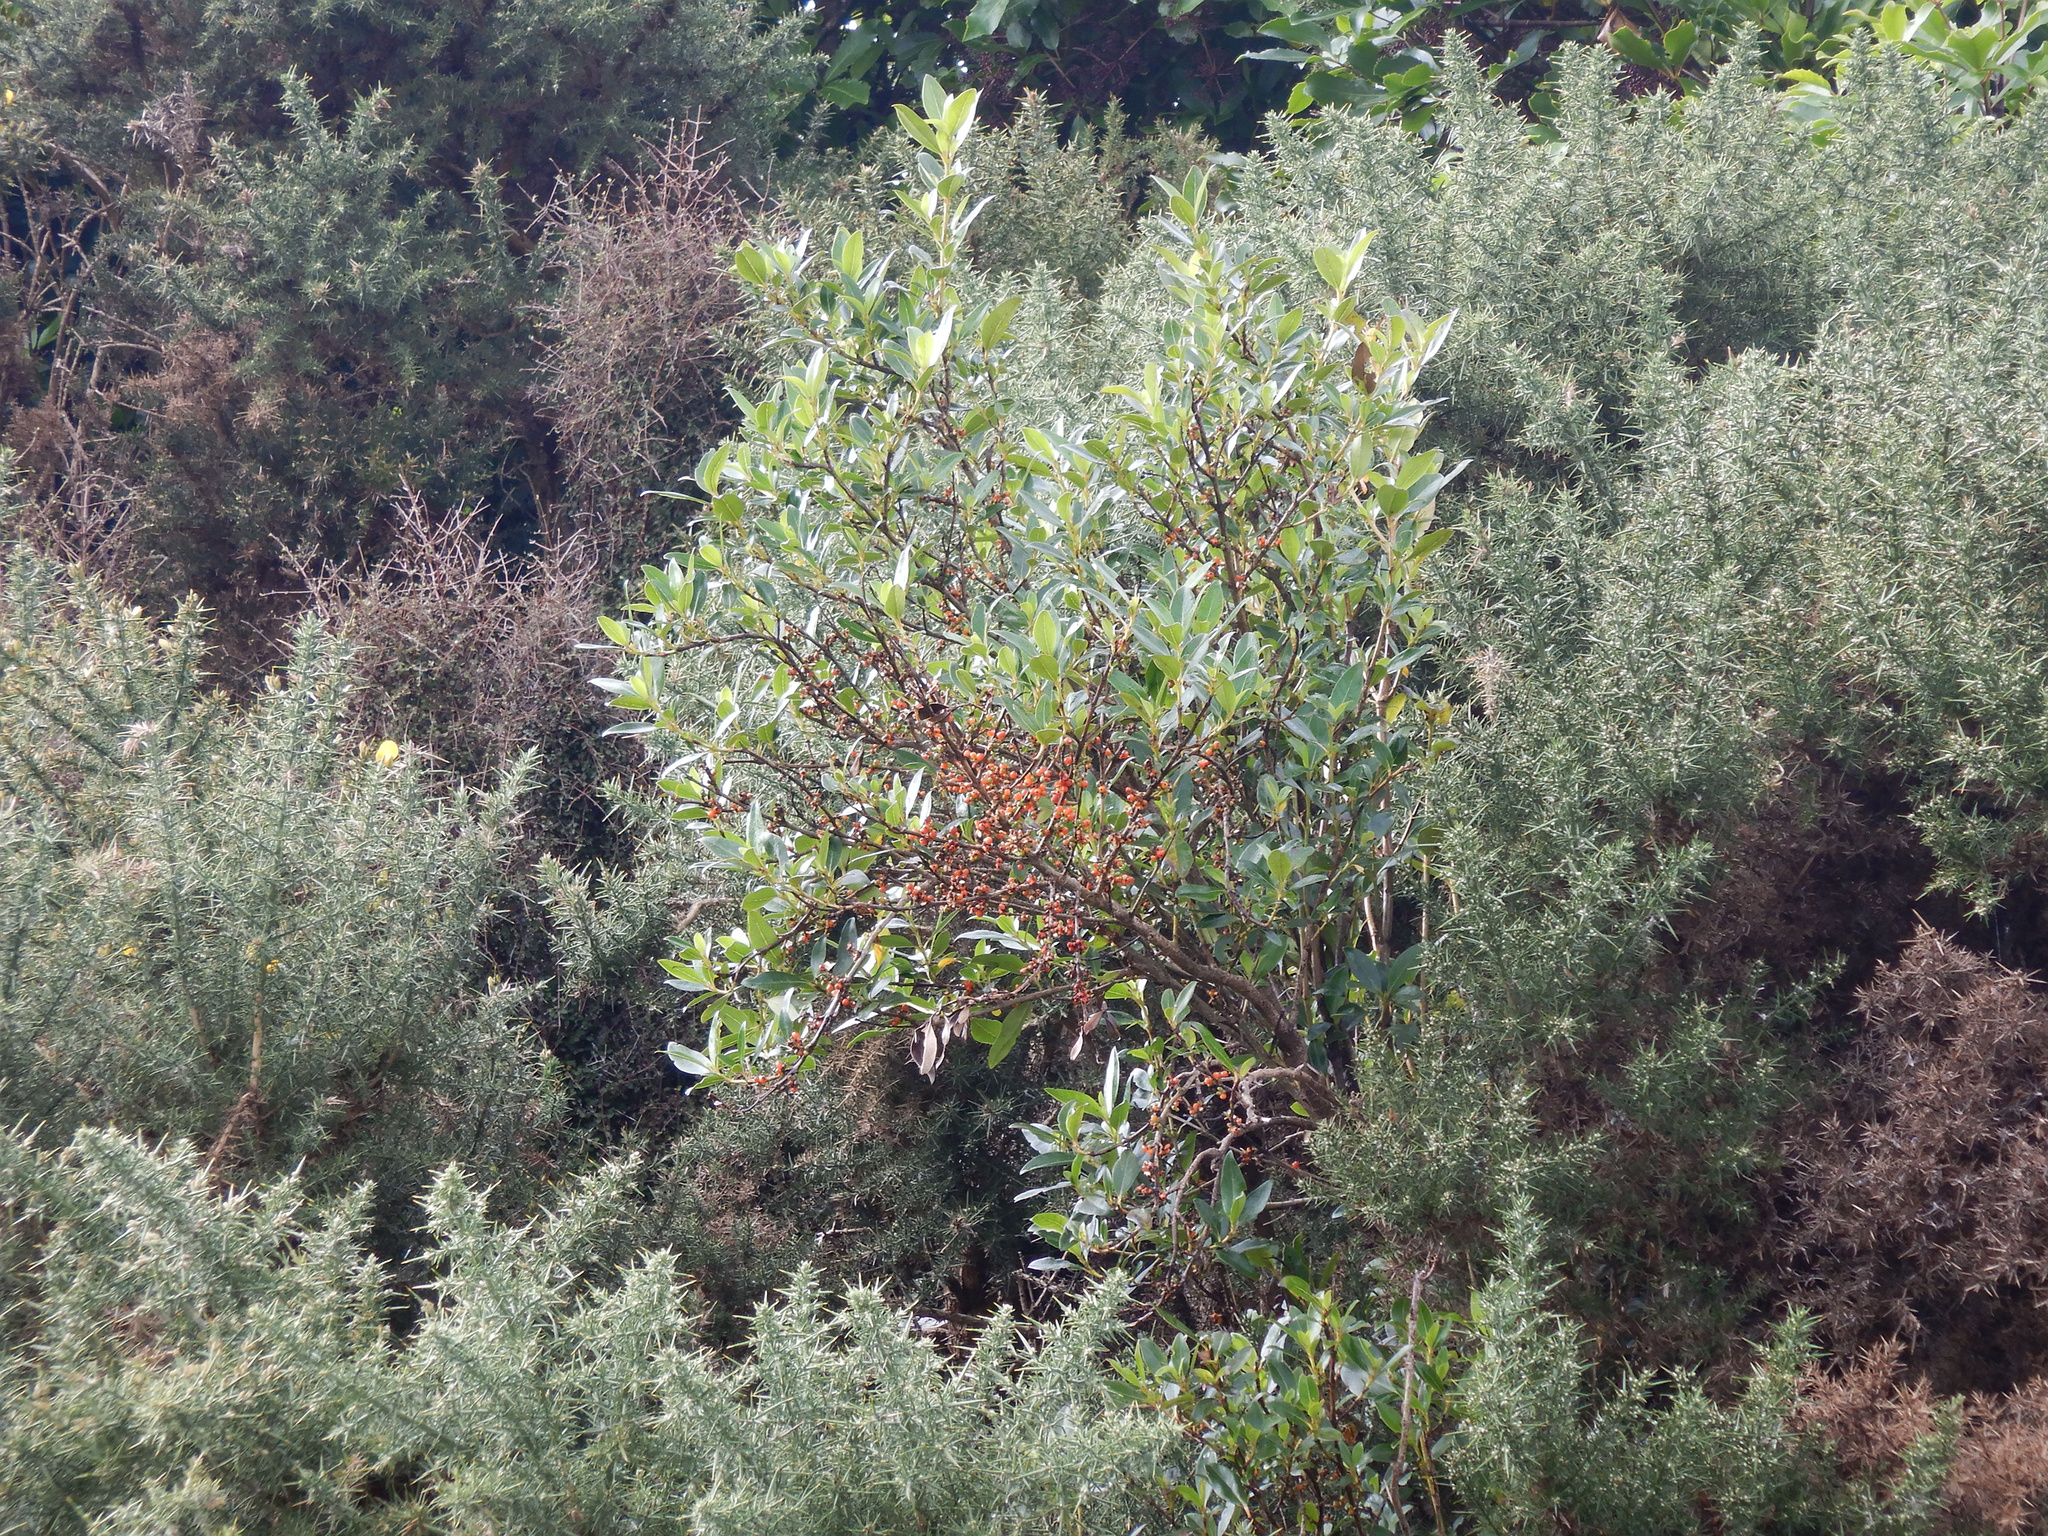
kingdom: Plantae
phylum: Tracheophyta
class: Magnoliopsida
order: Gentianales
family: Rubiaceae
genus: Coprosma
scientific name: Coprosma robusta
